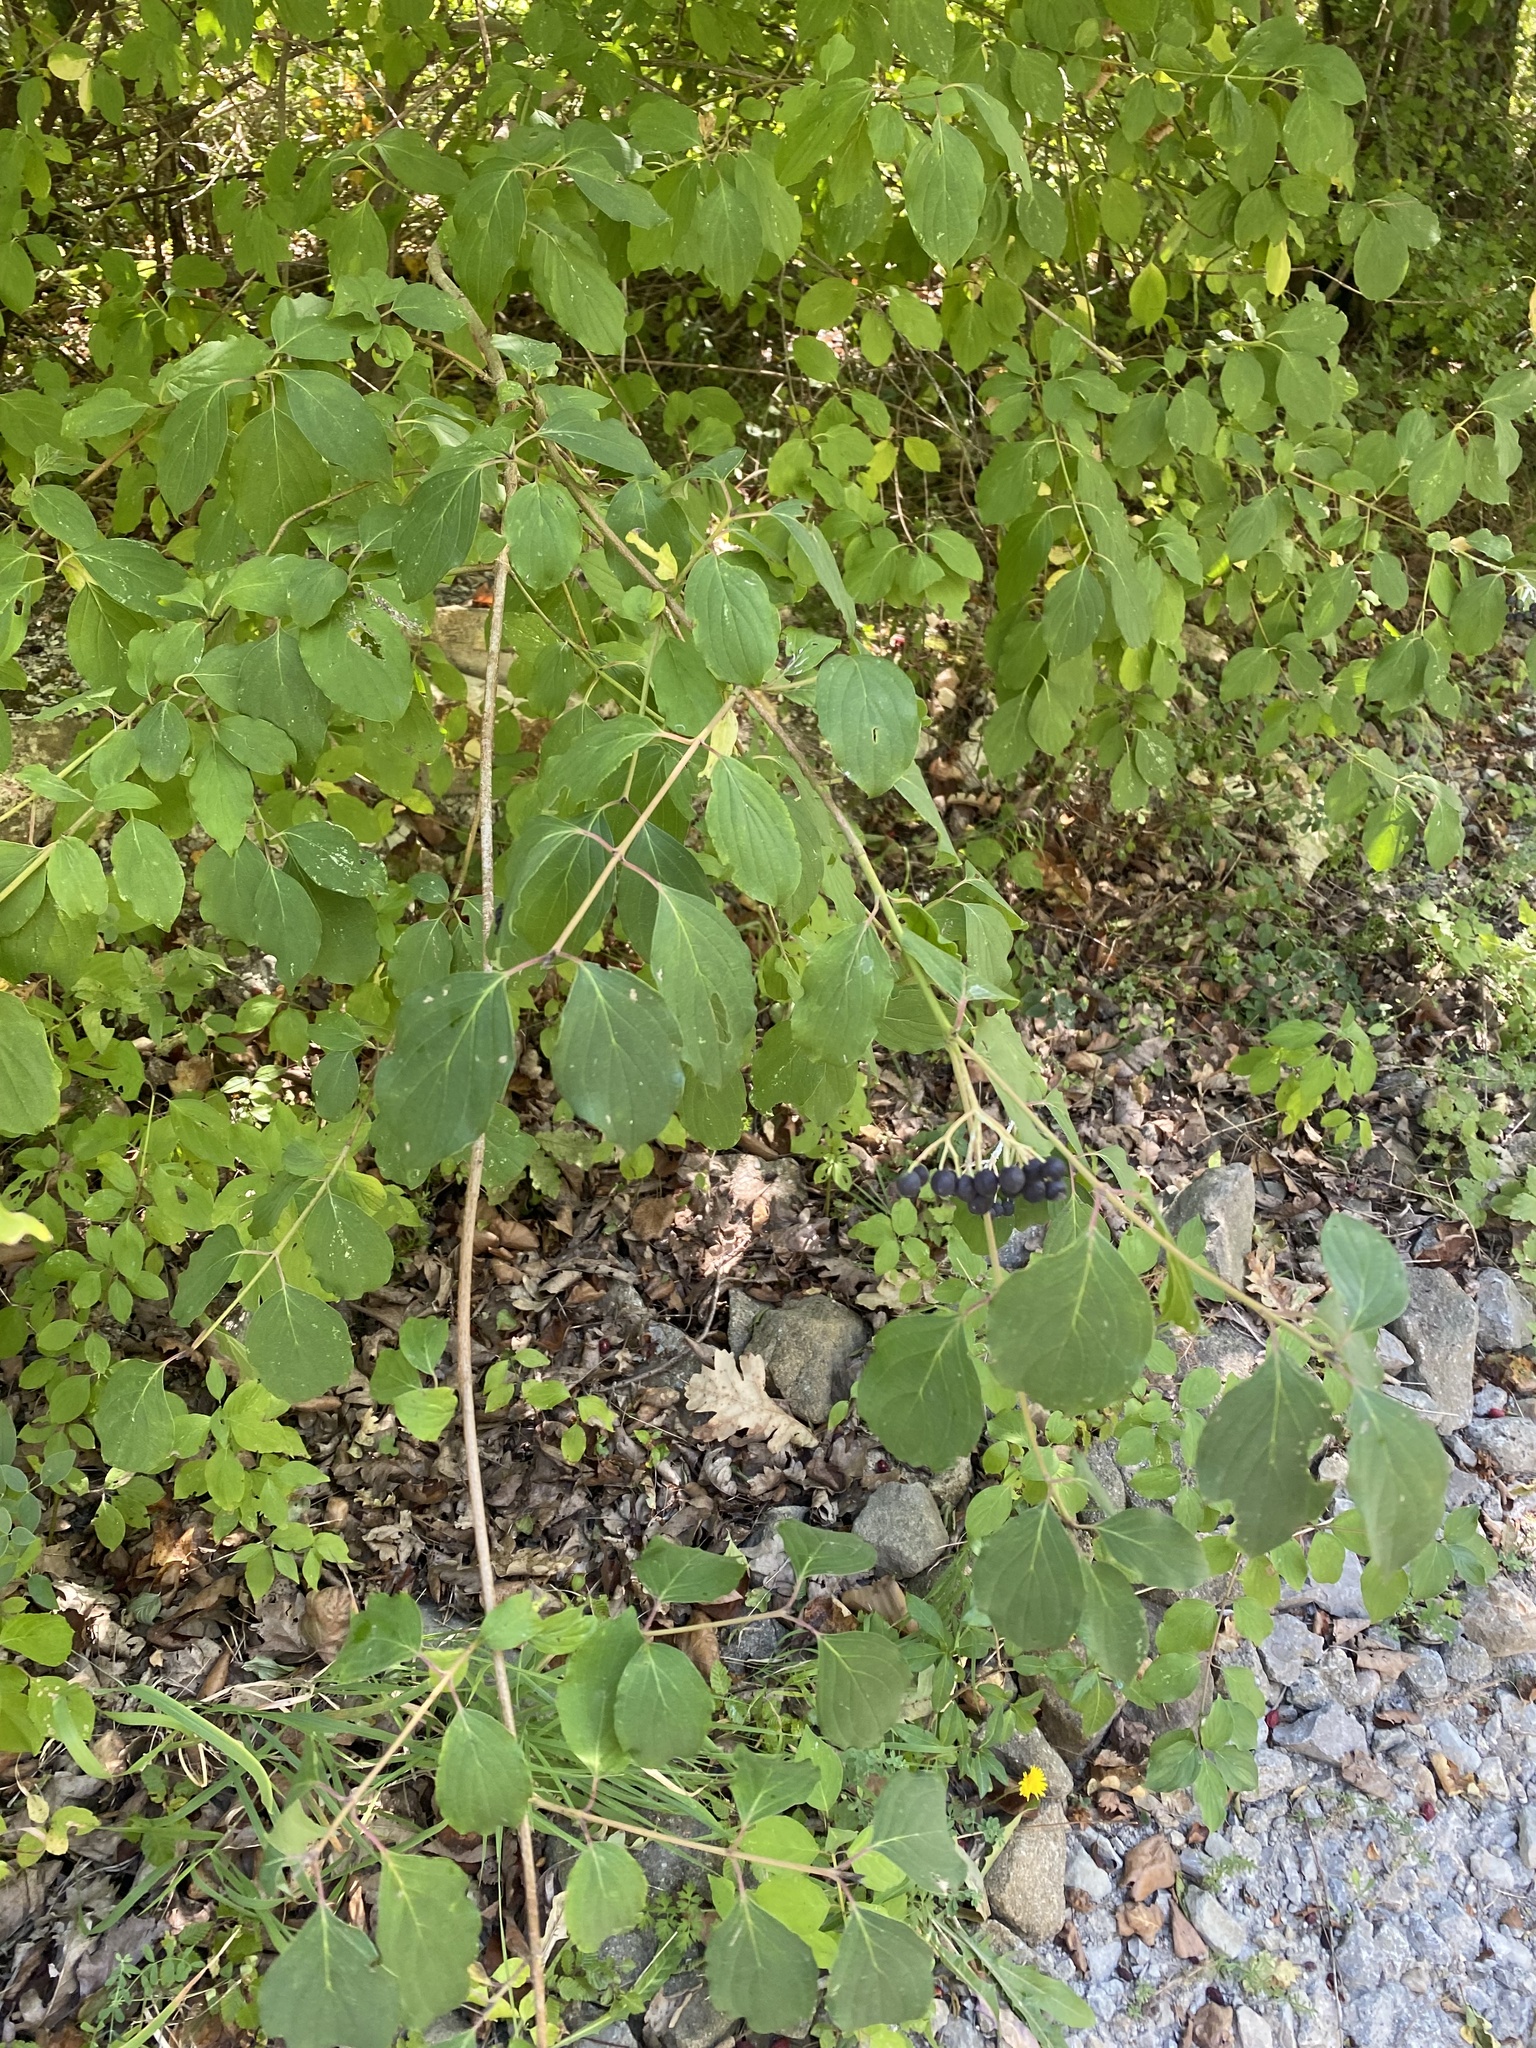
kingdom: Plantae
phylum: Tracheophyta
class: Magnoliopsida
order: Cornales
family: Cornaceae
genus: Cornus
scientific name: Cornus sanguinea
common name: Dogwood
